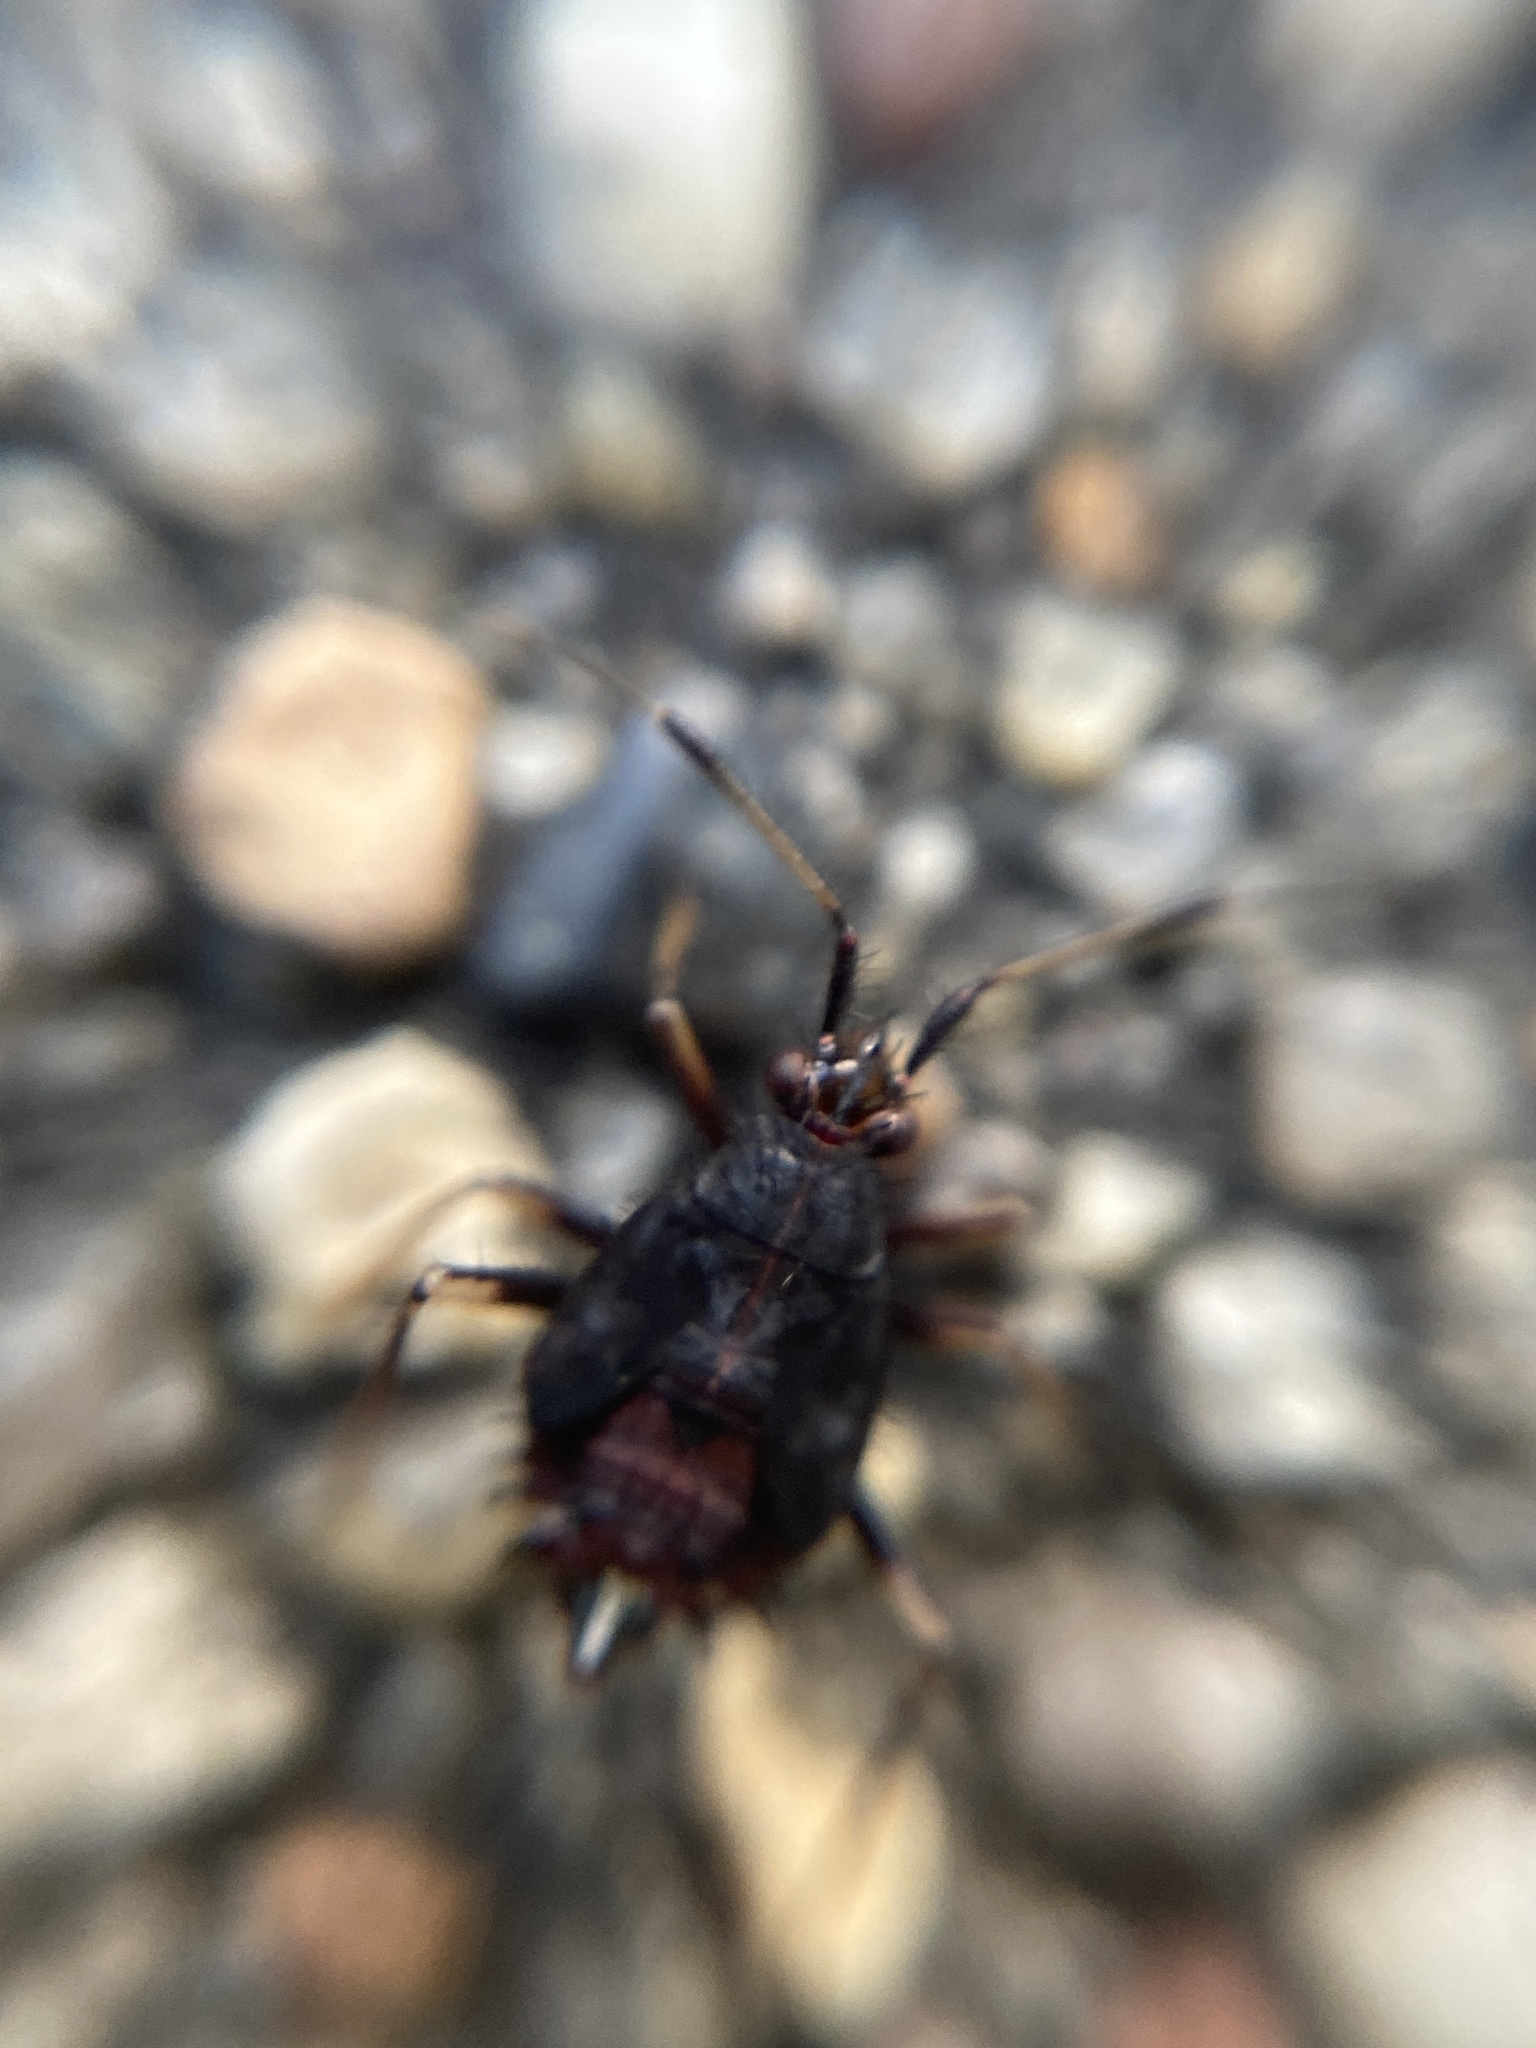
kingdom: Animalia
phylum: Arthropoda
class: Insecta
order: Hemiptera
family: Miridae
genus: Deraeocoris
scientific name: Deraeocoris ruber
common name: Plant bug
